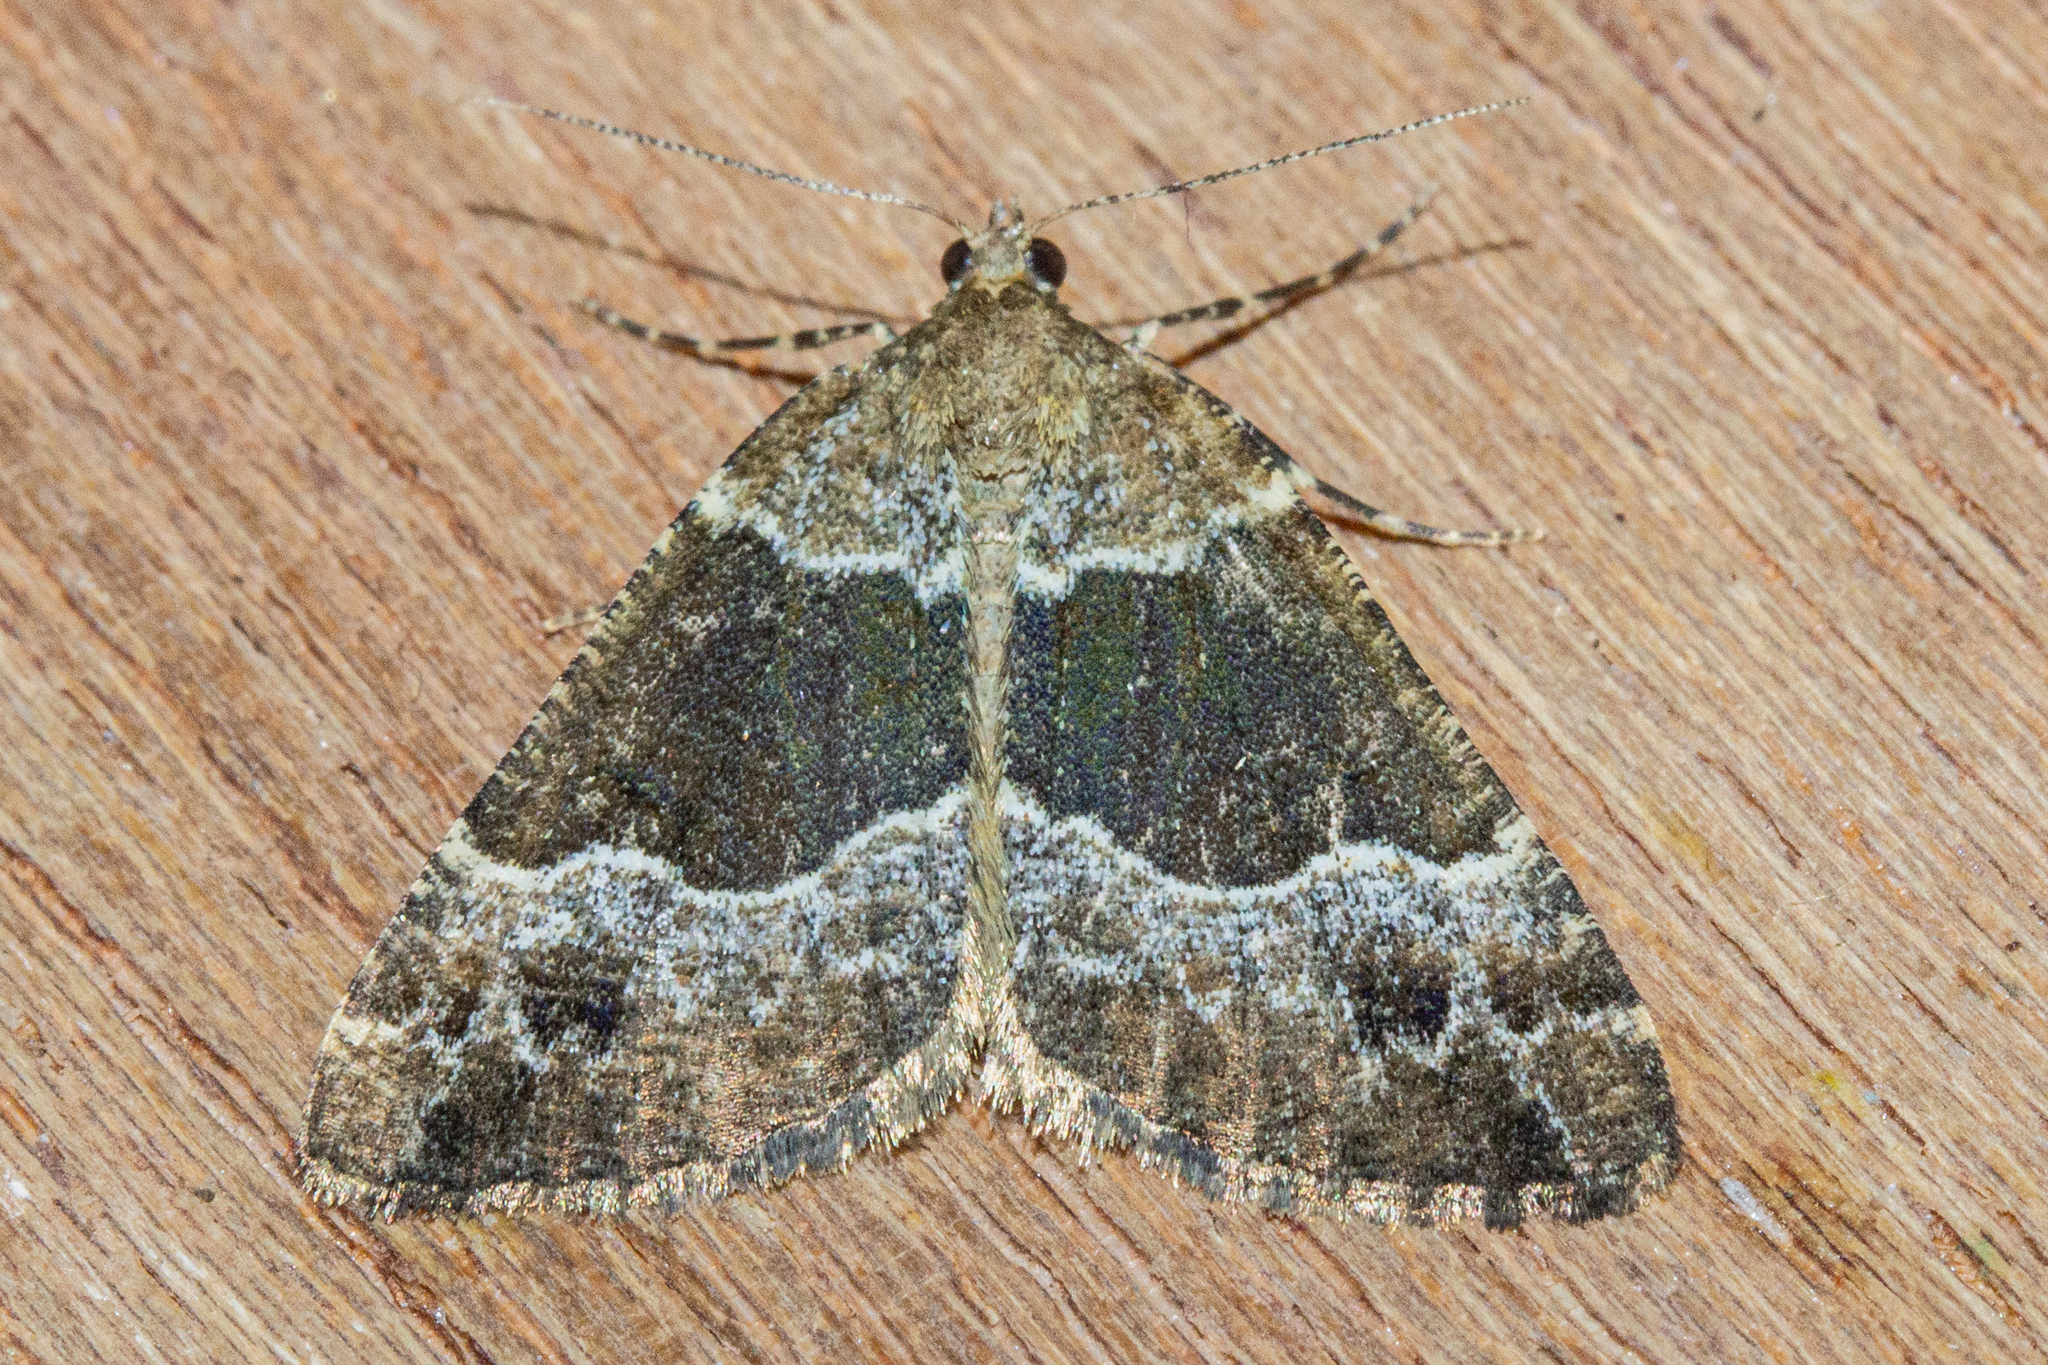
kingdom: Animalia
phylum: Arthropoda
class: Insecta
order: Lepidoptera
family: Geometridae
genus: Pseudocoremia
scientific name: Pseudocoremia
